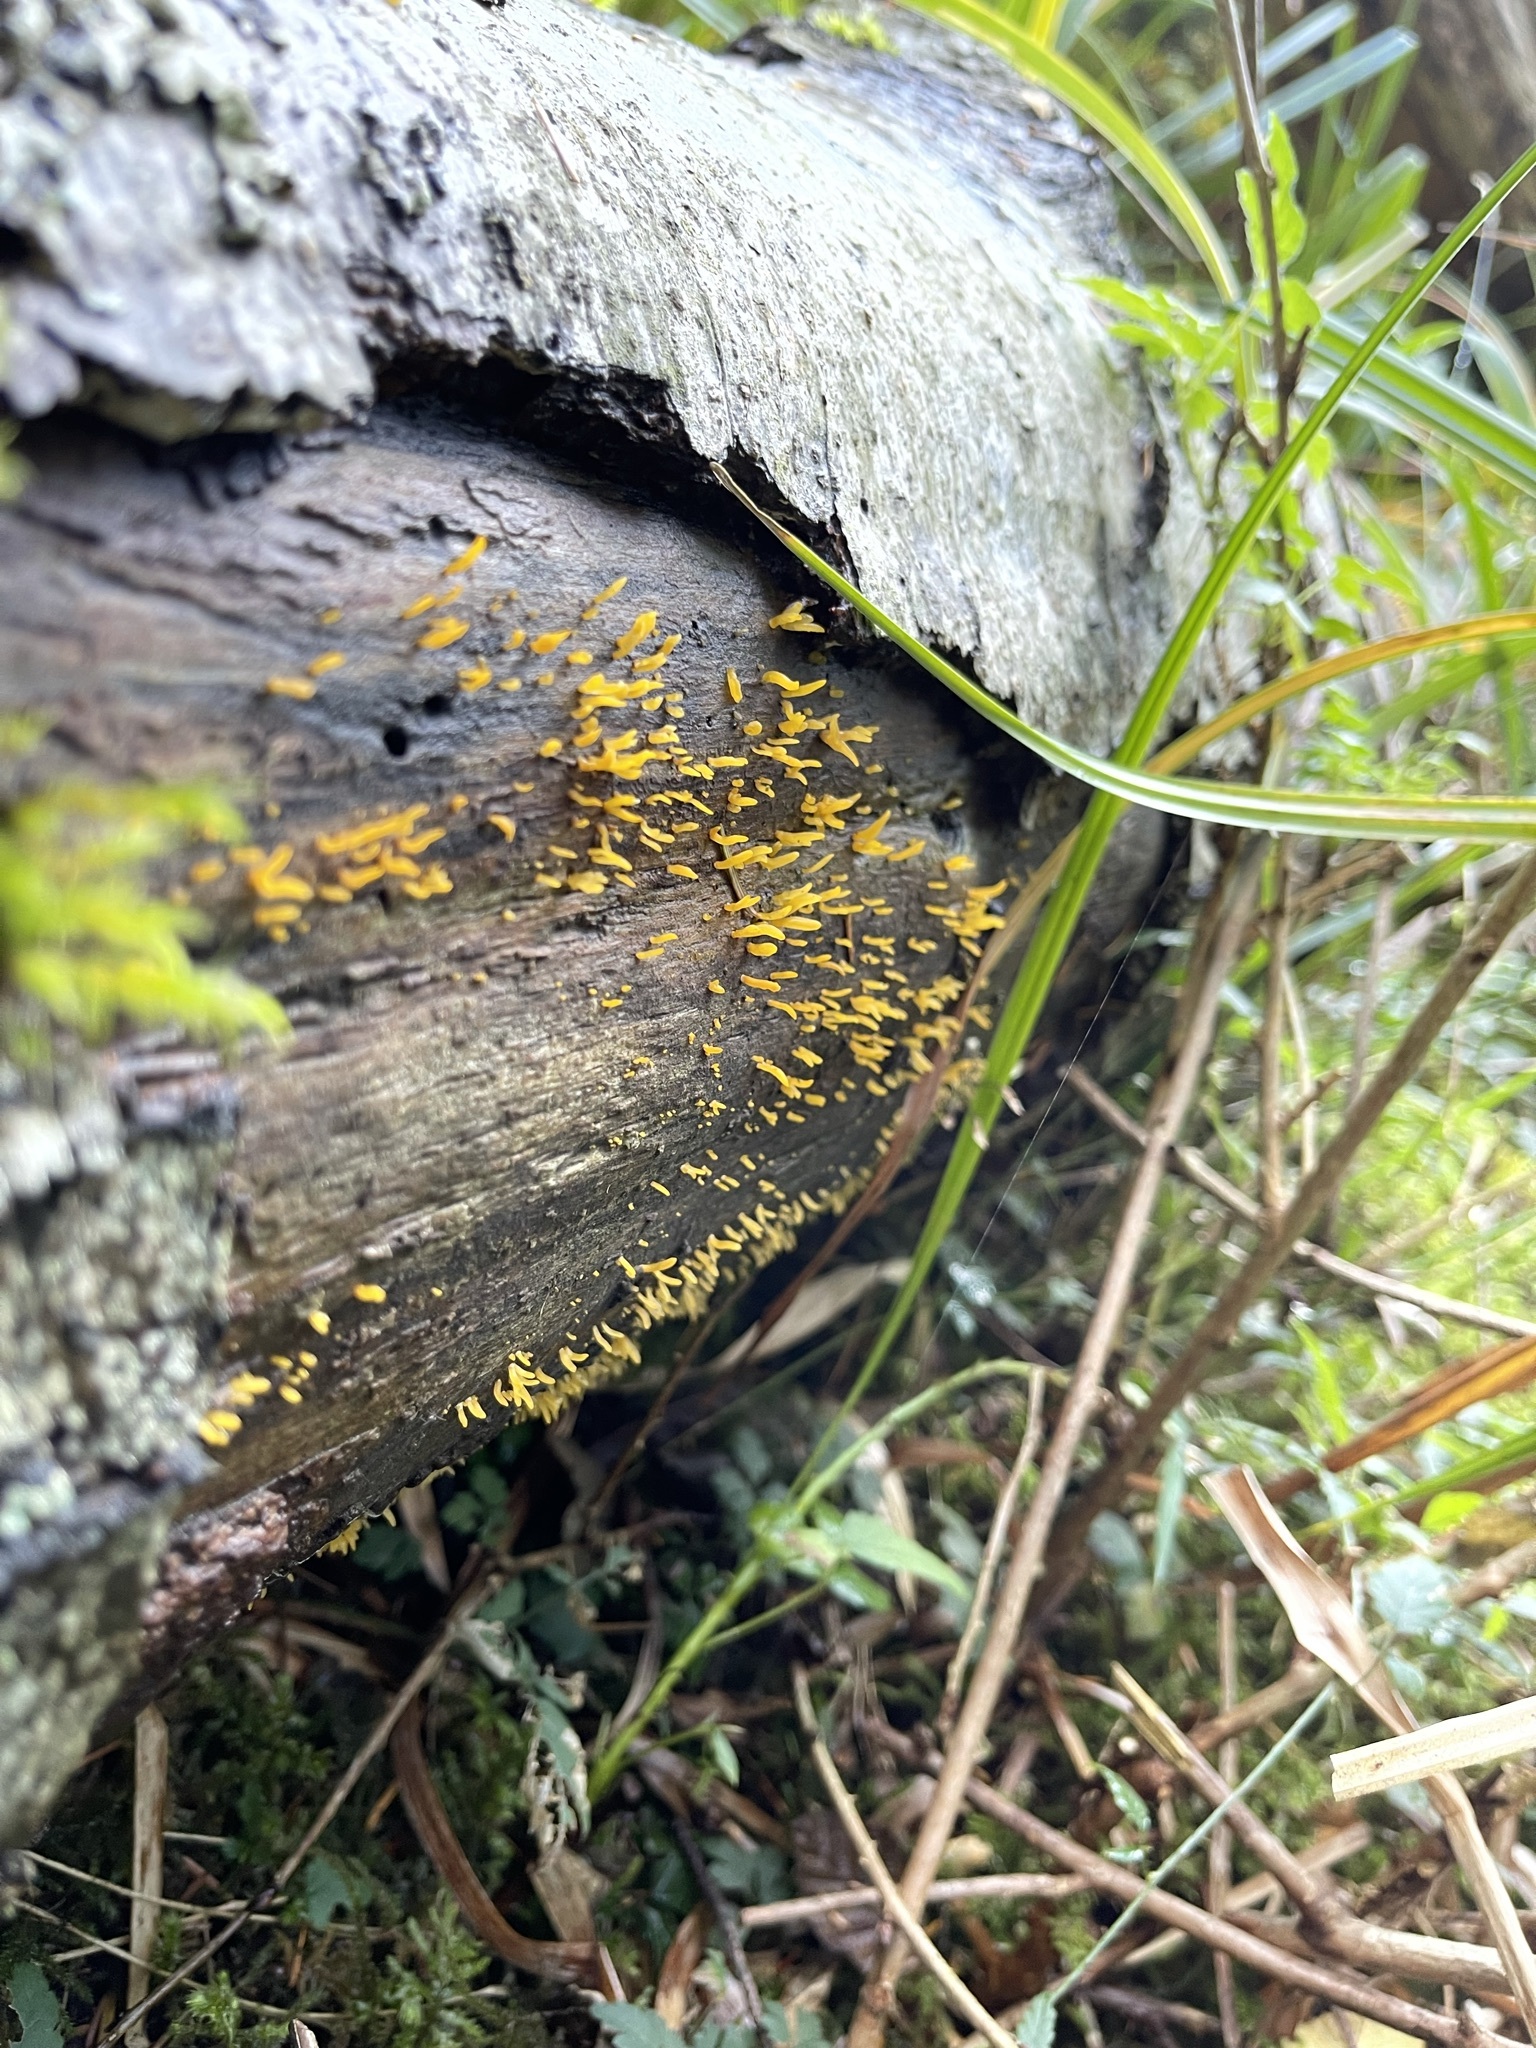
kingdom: Fungi
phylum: Basidiomycota
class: Dacrymycetes
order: Dacrymycetales
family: Dacrymycetaceae
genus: Calocera
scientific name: Calocera cornea
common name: Small stagshorn
